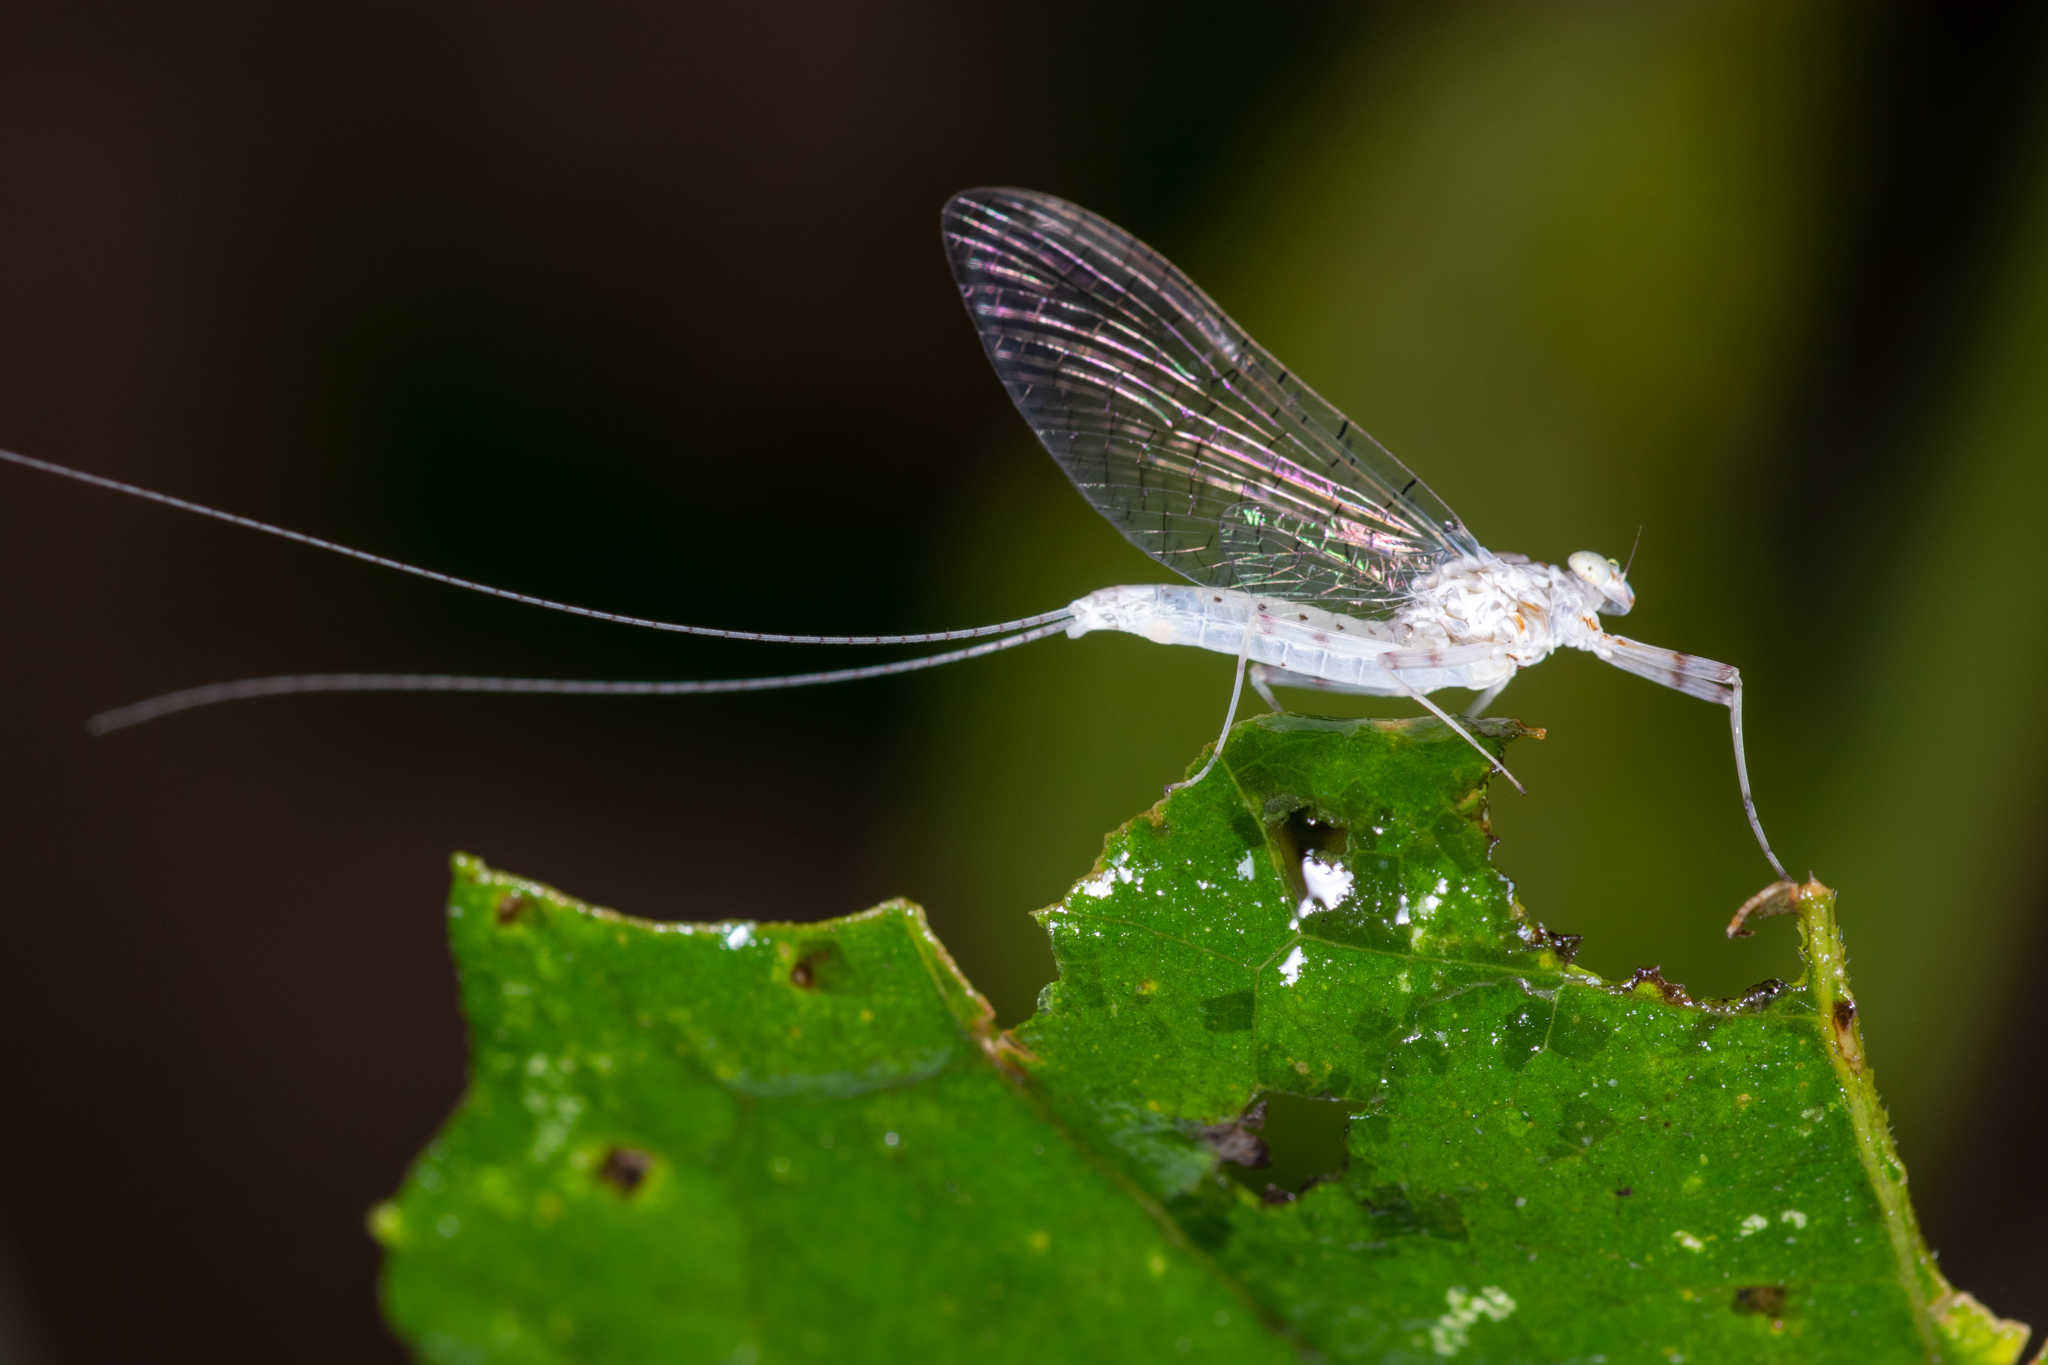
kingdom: Animalia
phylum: Arthropoda
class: Insecta
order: Ephemeroptera
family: Heptageniidae
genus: Maccaffertium
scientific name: Maccaffertium pulchellum
